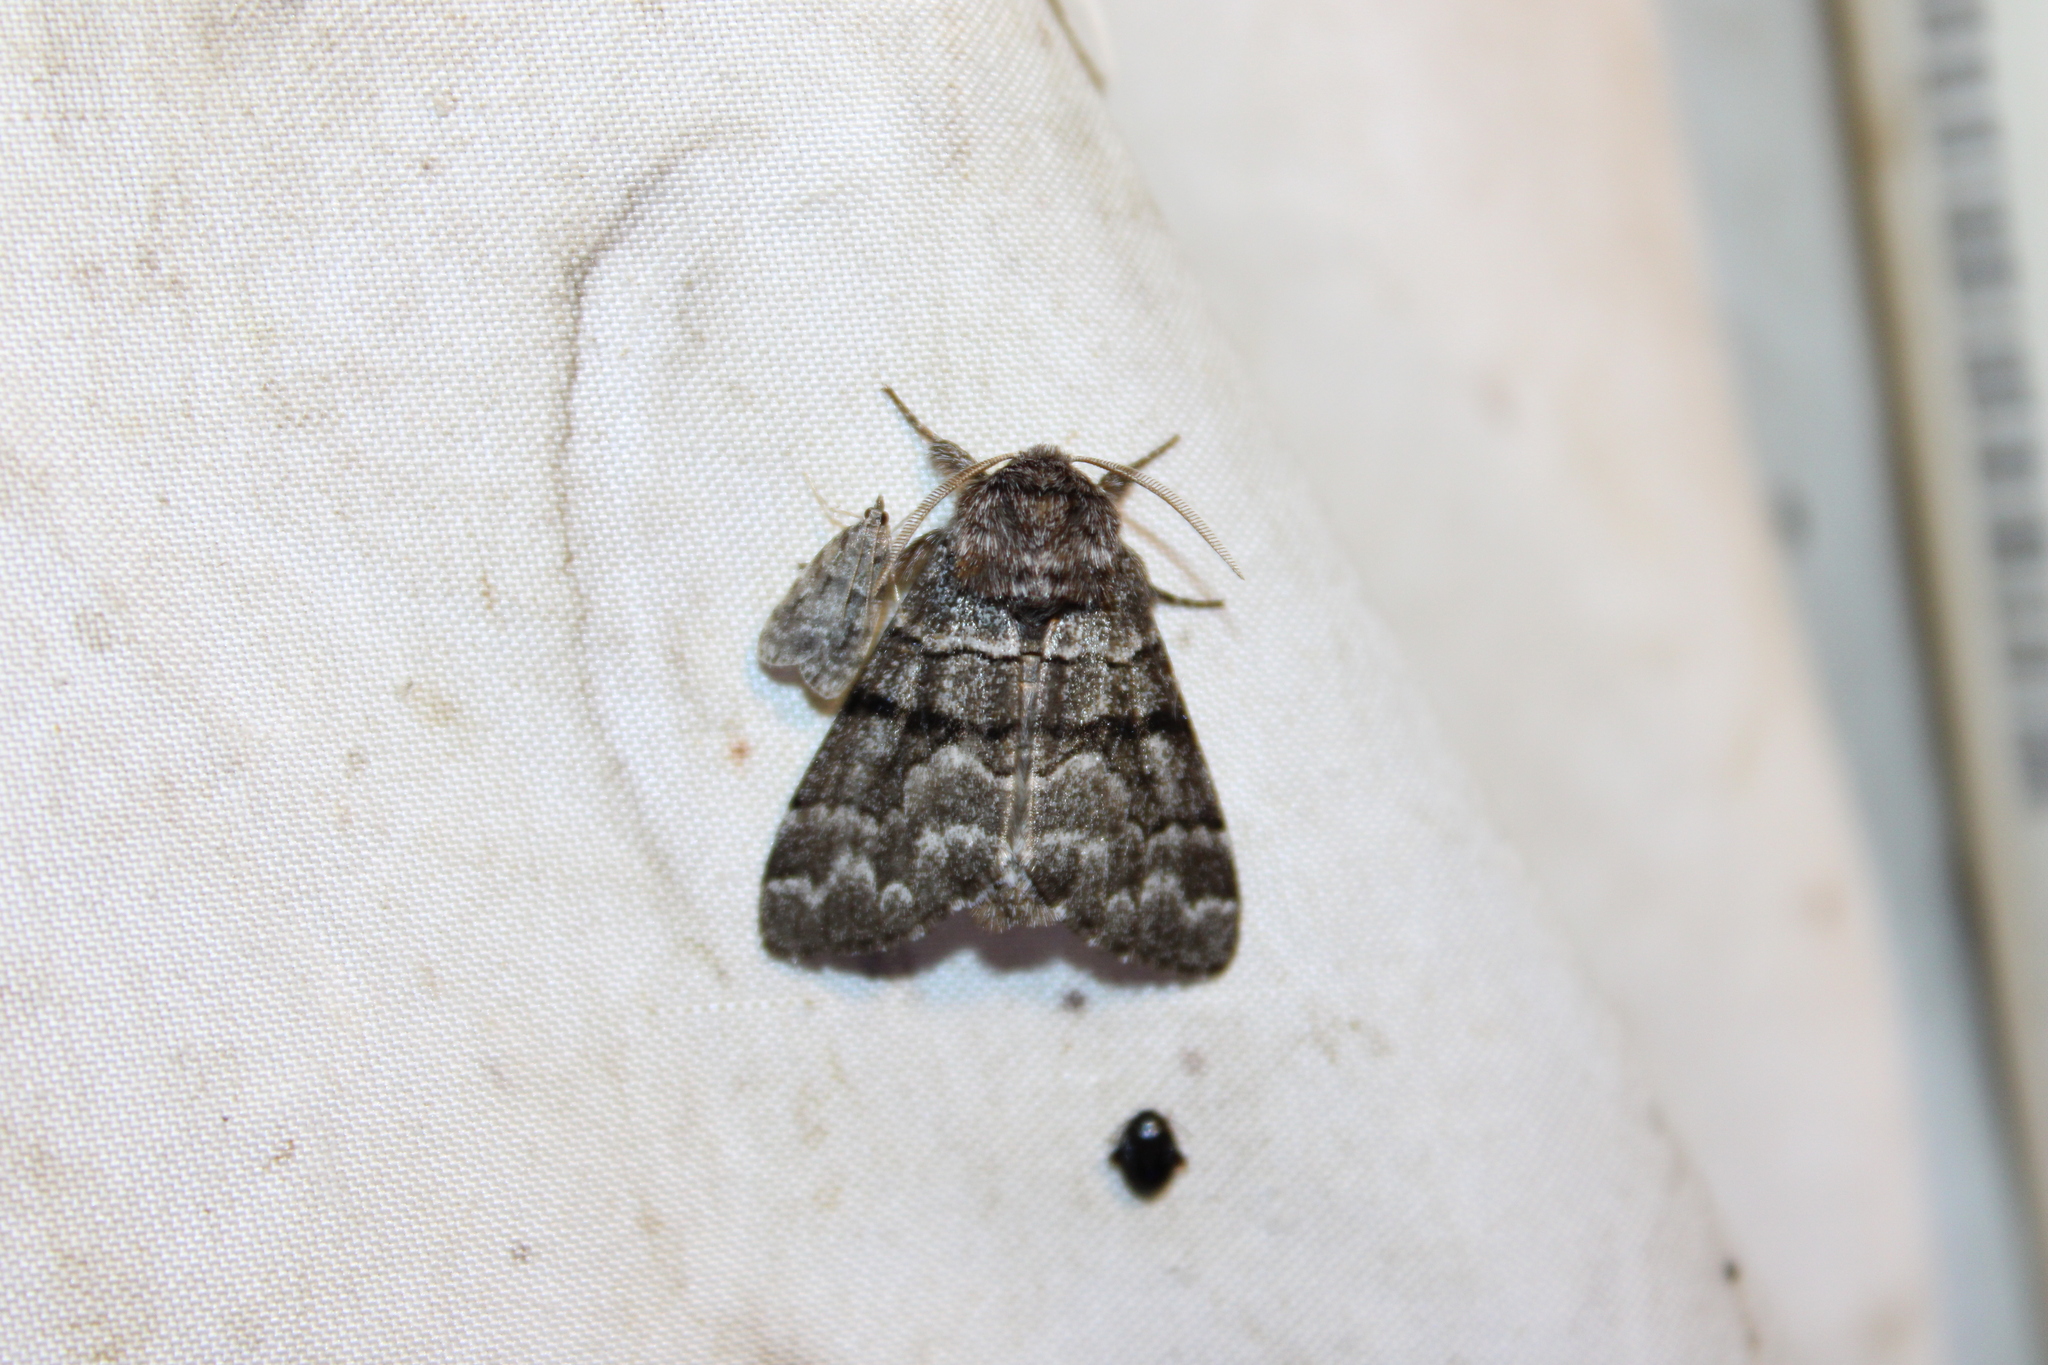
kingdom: Animalia
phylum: Arthropoda
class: Insecta
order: Lepidoptera
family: Noctuidae
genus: Panthea
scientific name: Panthea furcilla
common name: Eastern panthea moth
